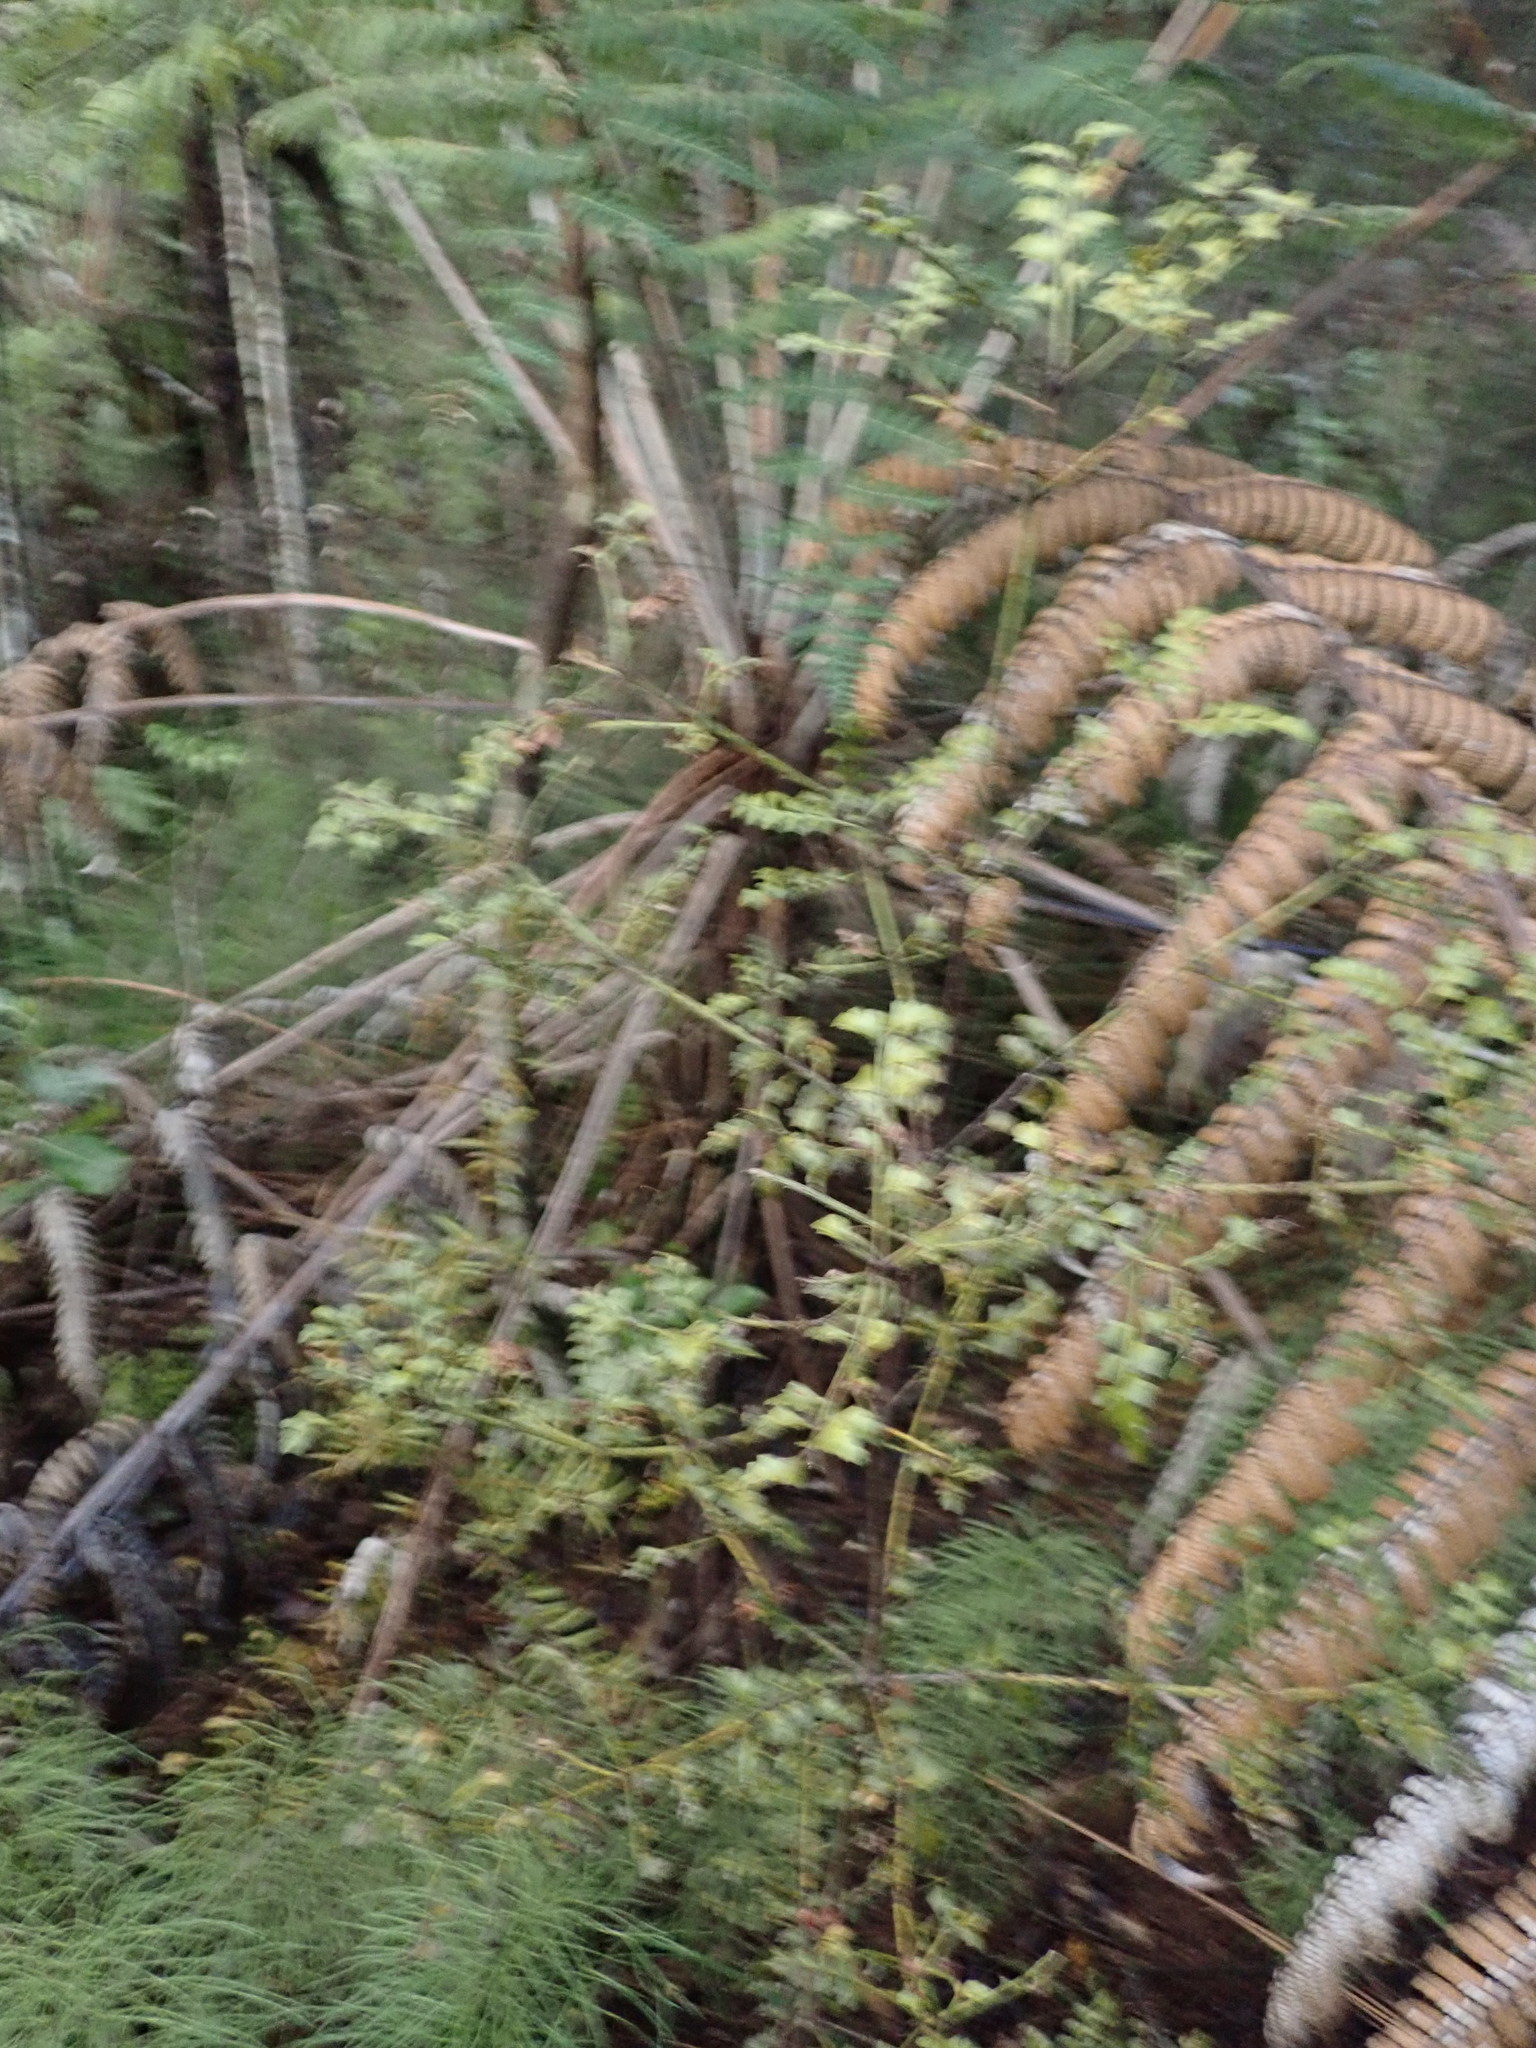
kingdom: Plantae
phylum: Tracheophyta
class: Pinopsida
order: Pinales
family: Phyllocladaceae
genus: Phyllocladus
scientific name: Phyllocladus trichomanoides
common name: Celery pine
